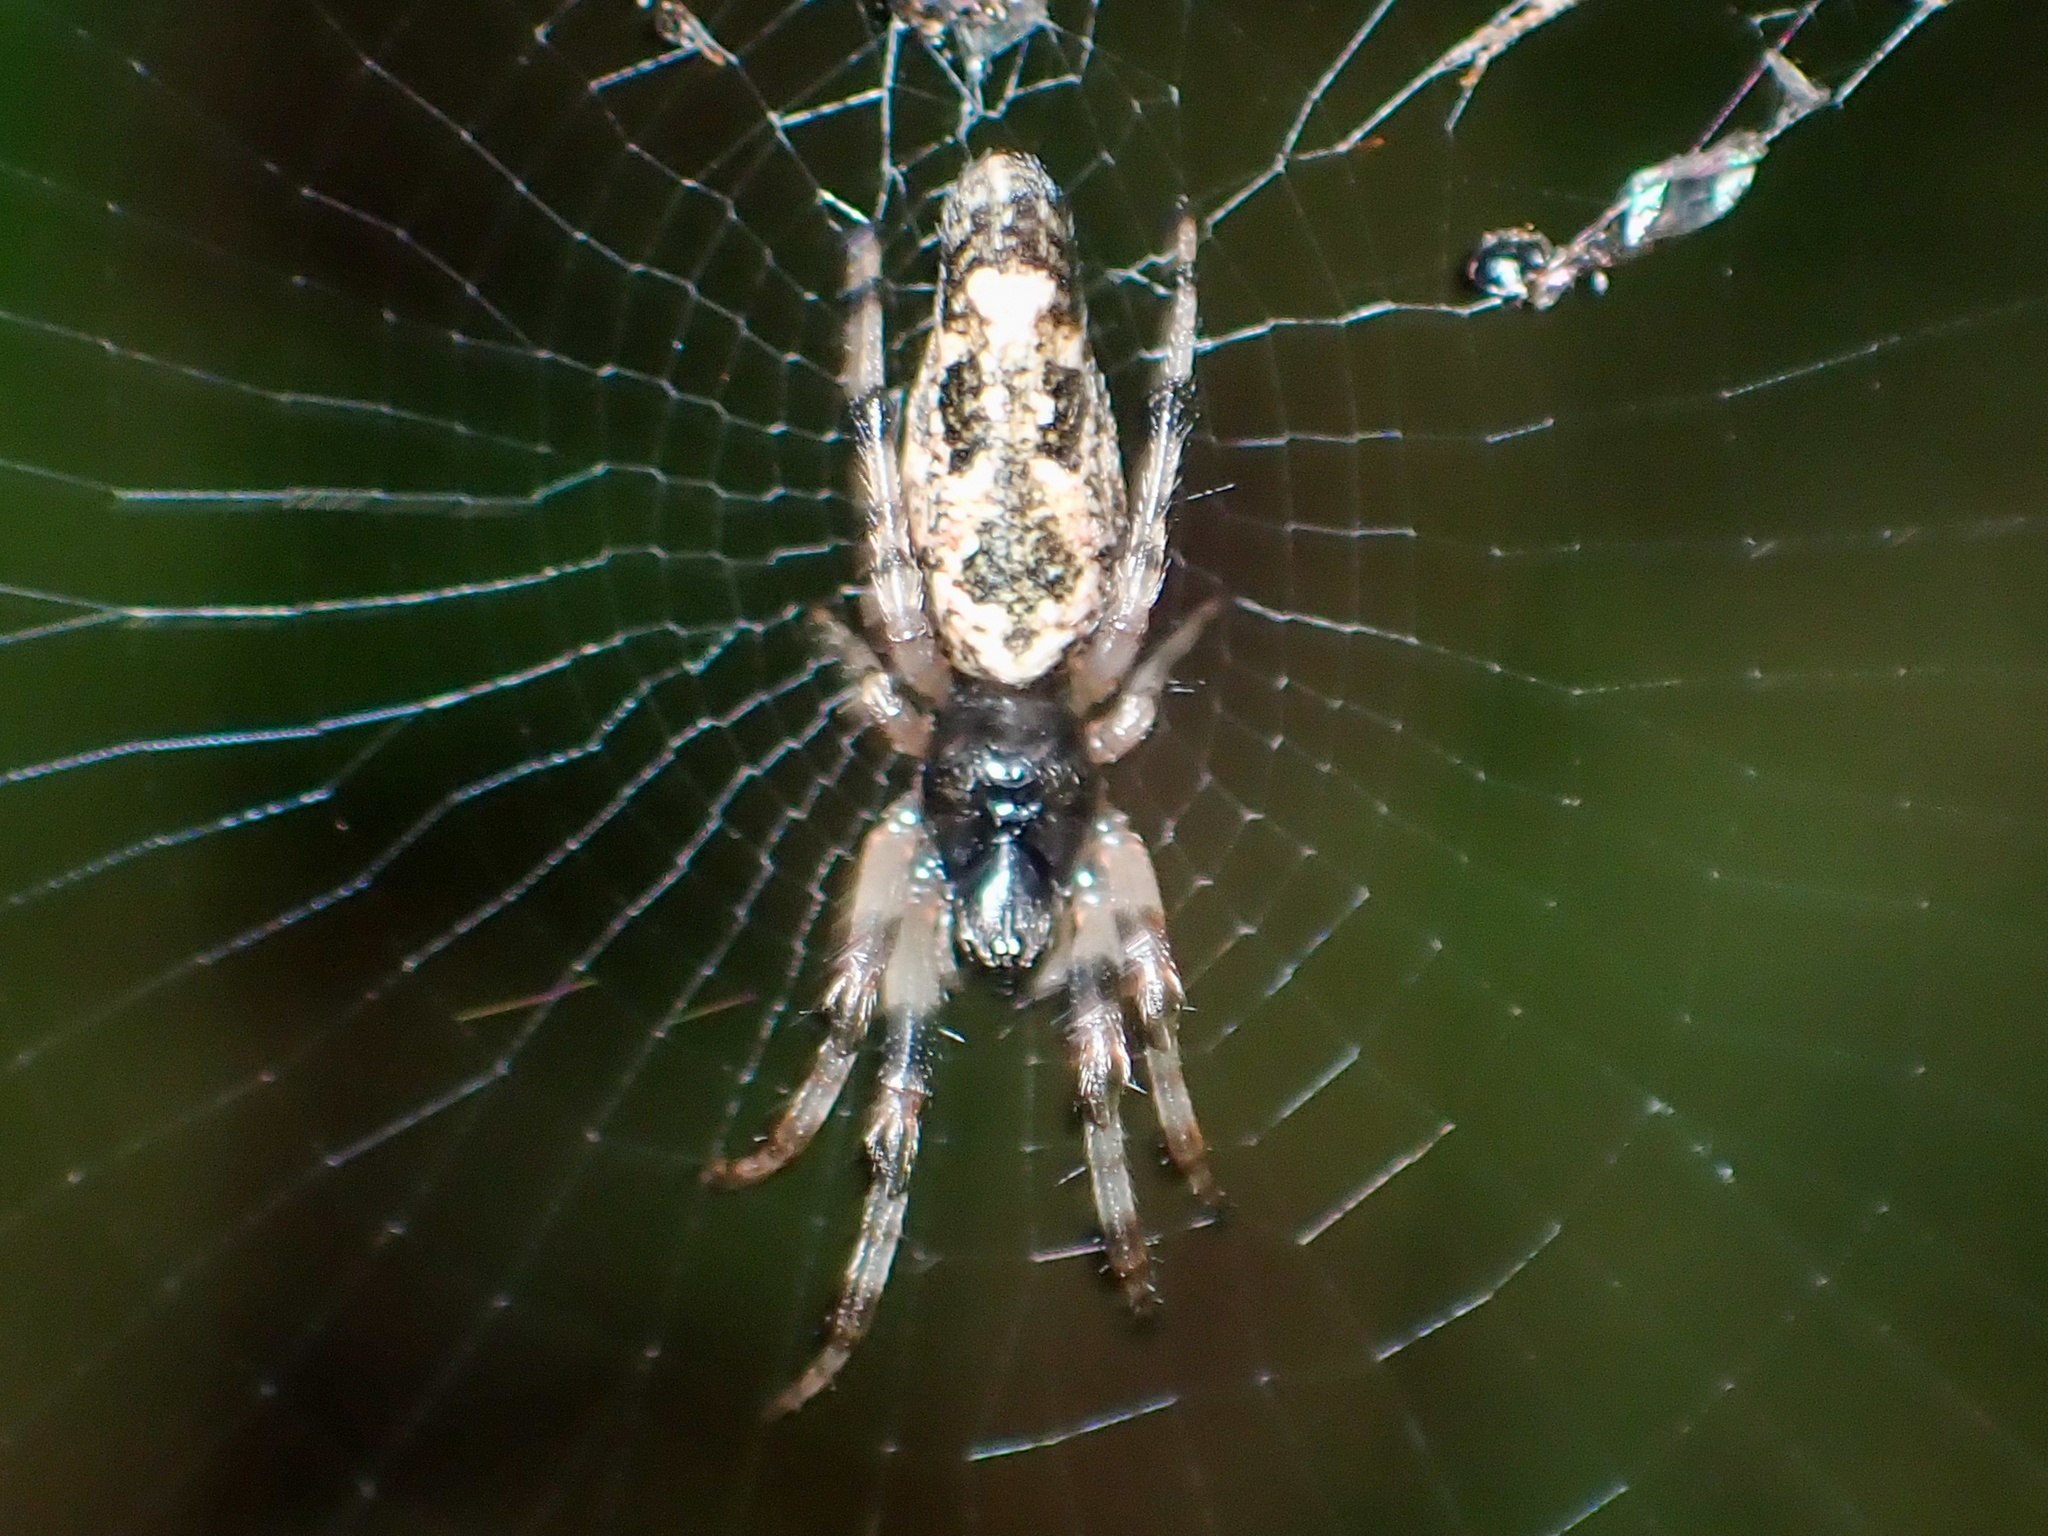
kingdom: Animalia
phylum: Arthropoda
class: Arachnida
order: Araneae
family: Araneidae
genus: Cyclosa
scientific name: Cyclosa caroli
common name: Orb weavers
